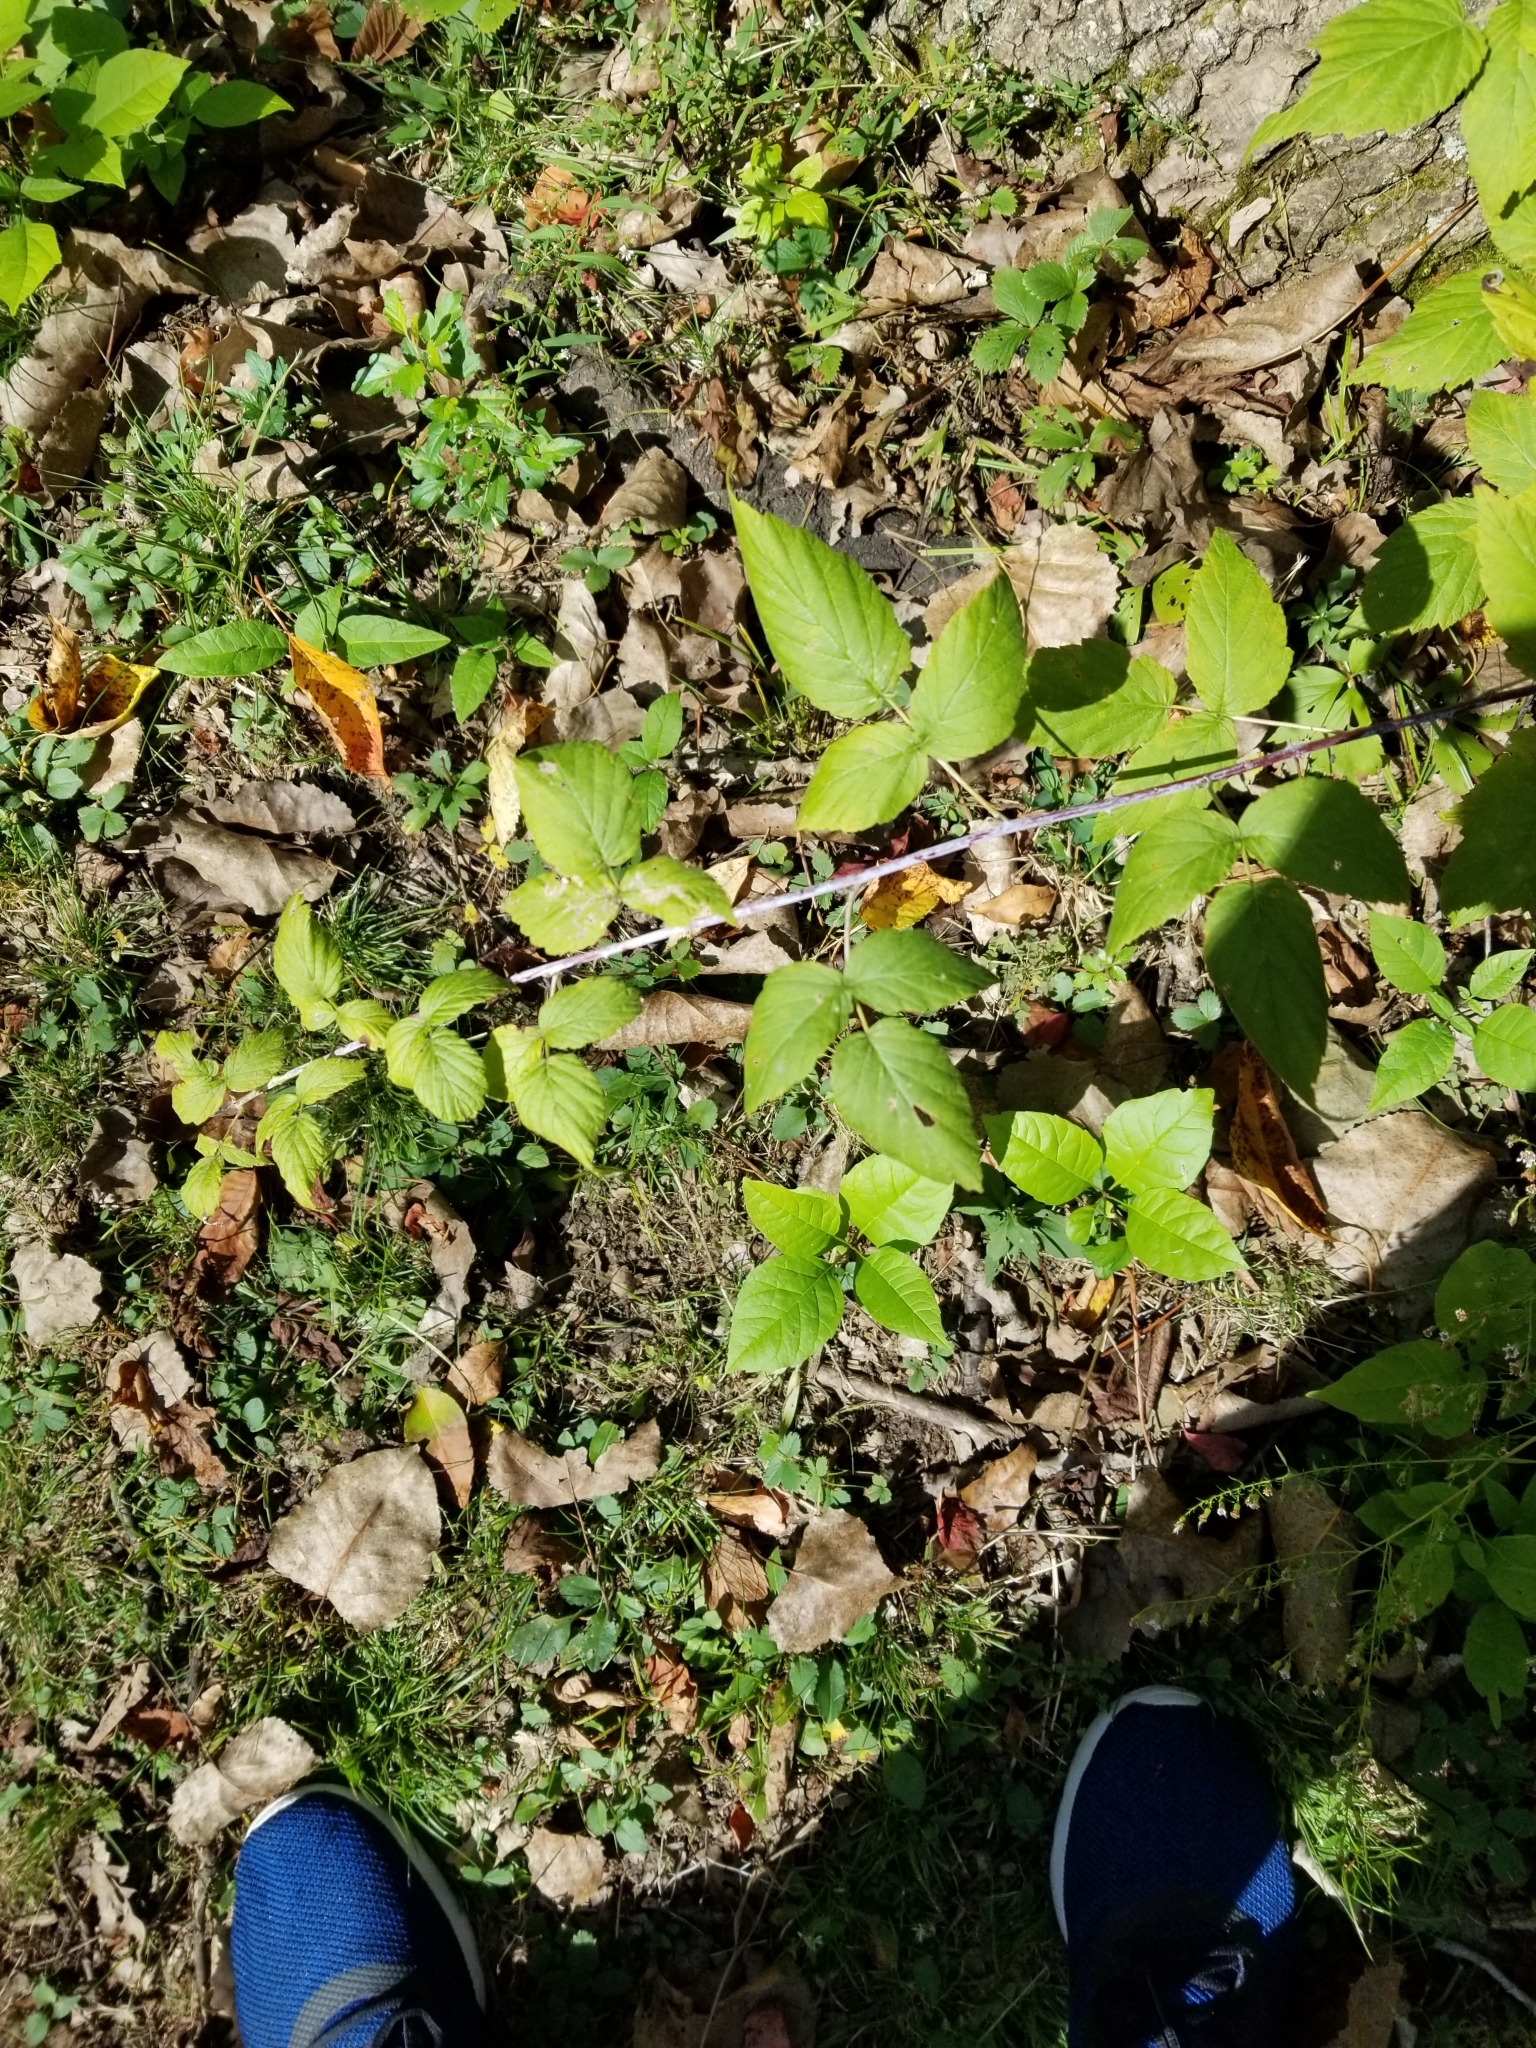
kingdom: Plantae
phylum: Tracheophyta
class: Magnoliopsida
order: Rosales
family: Rosaceae
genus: Rubus
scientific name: Rubus occidentalis
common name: Black raspberry
